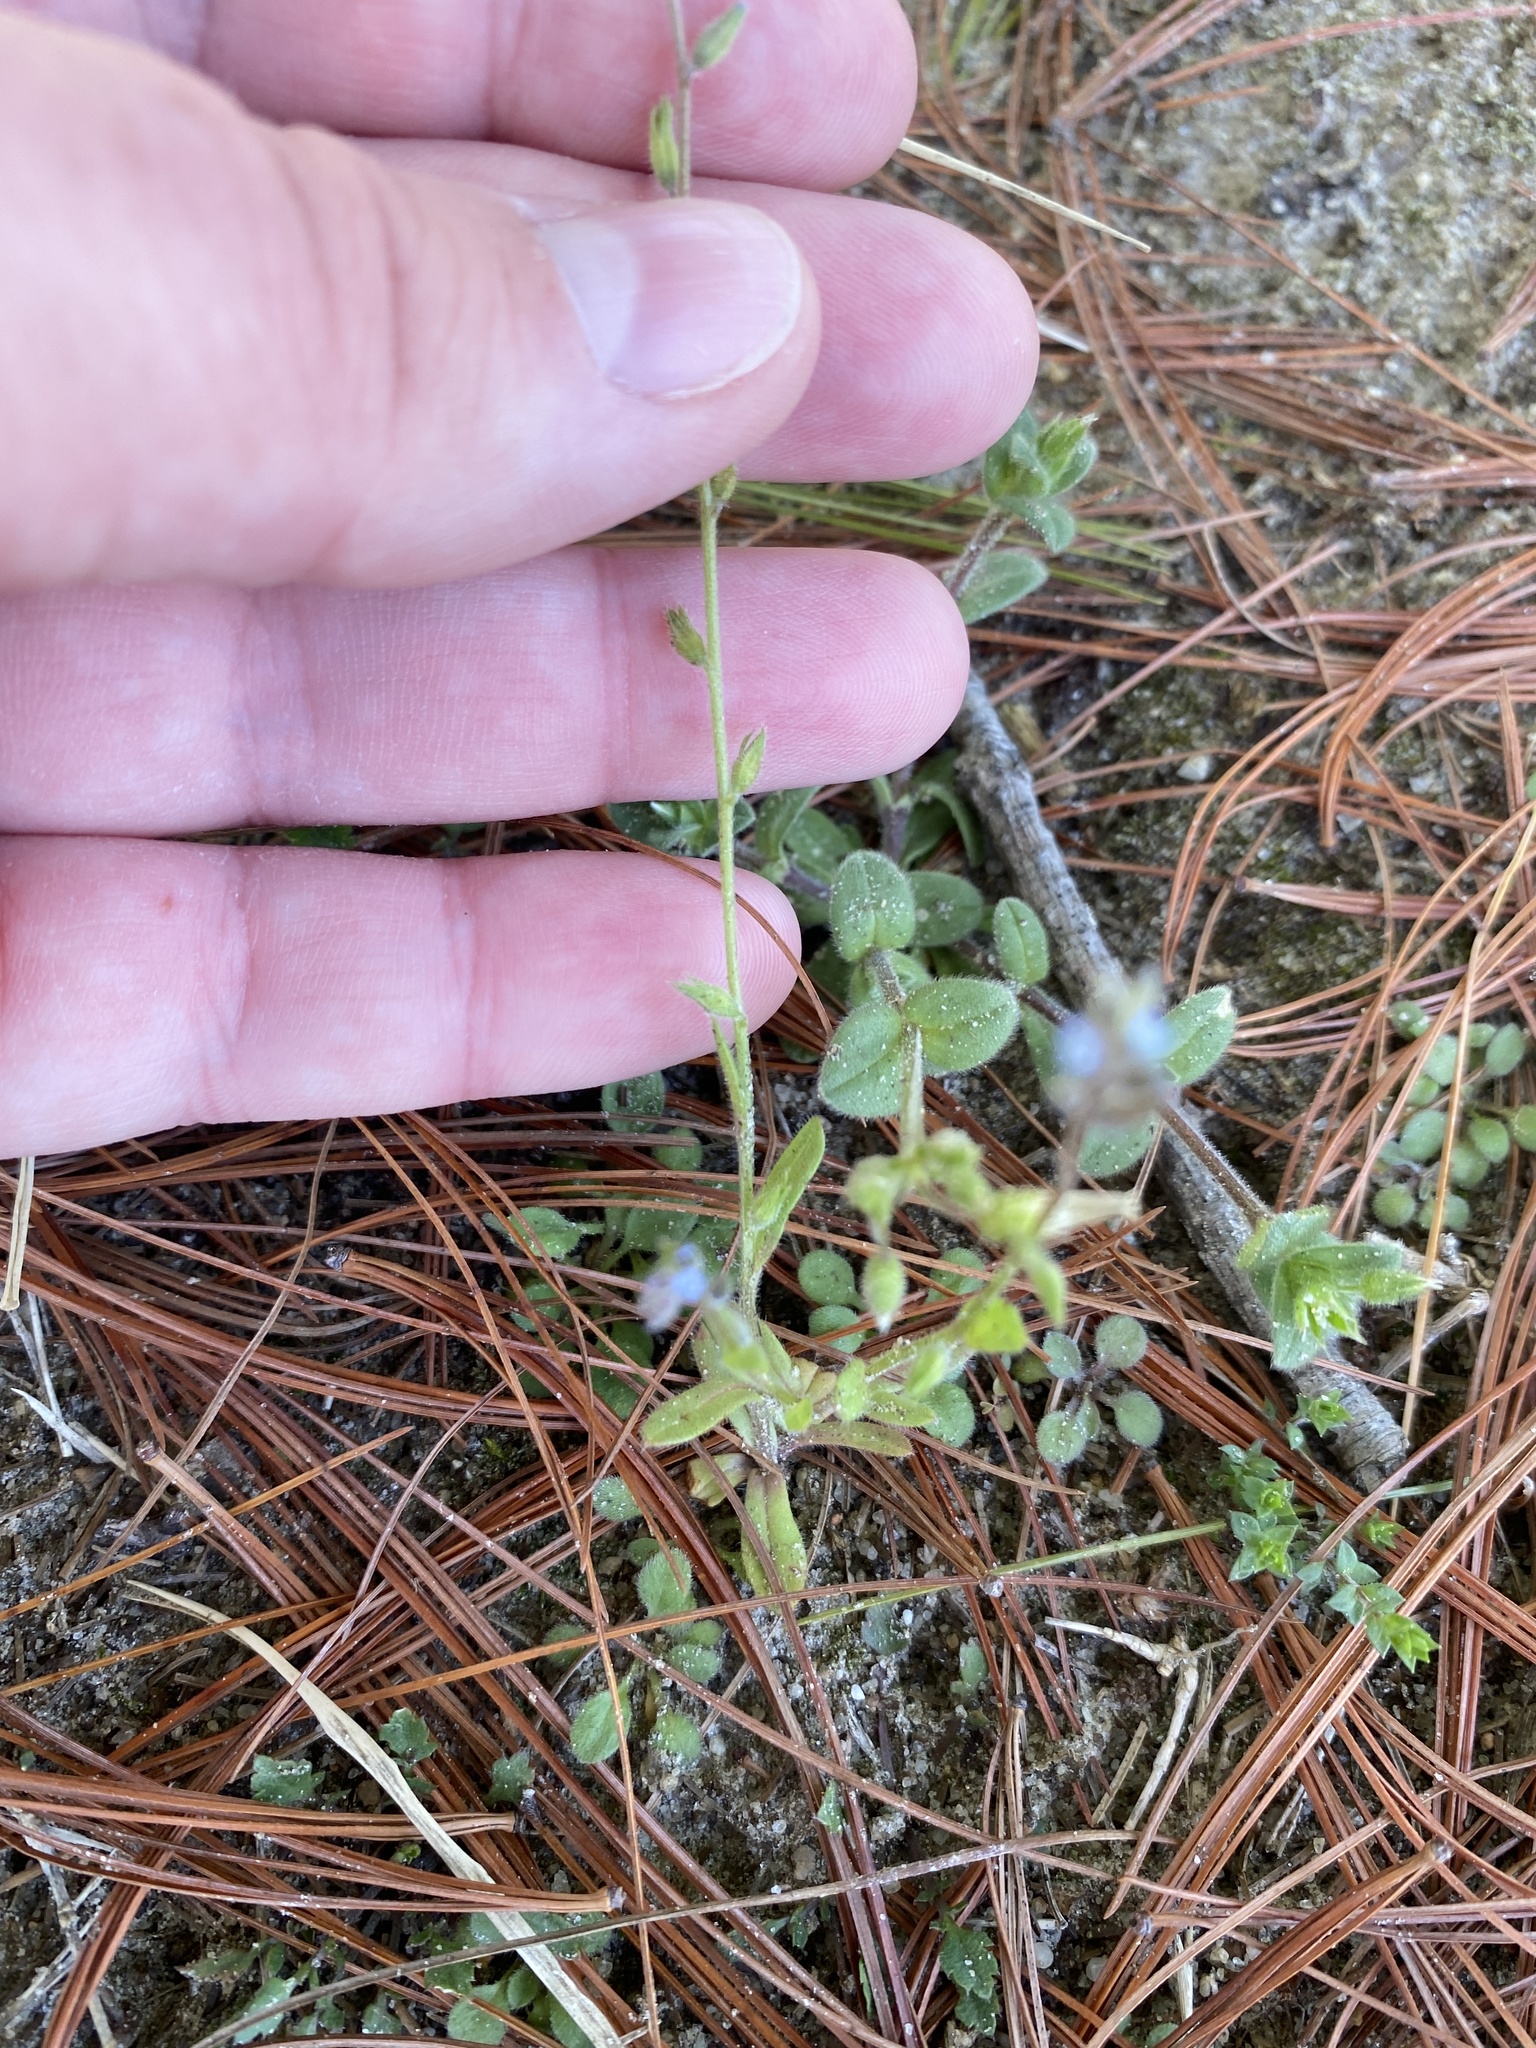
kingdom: Plantae
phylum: Tracheophyta
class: Magnoliopsida
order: Boraginales
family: Boraginaceae
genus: Myosotis
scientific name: Myosotis stricta
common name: Strict forget-me-not
